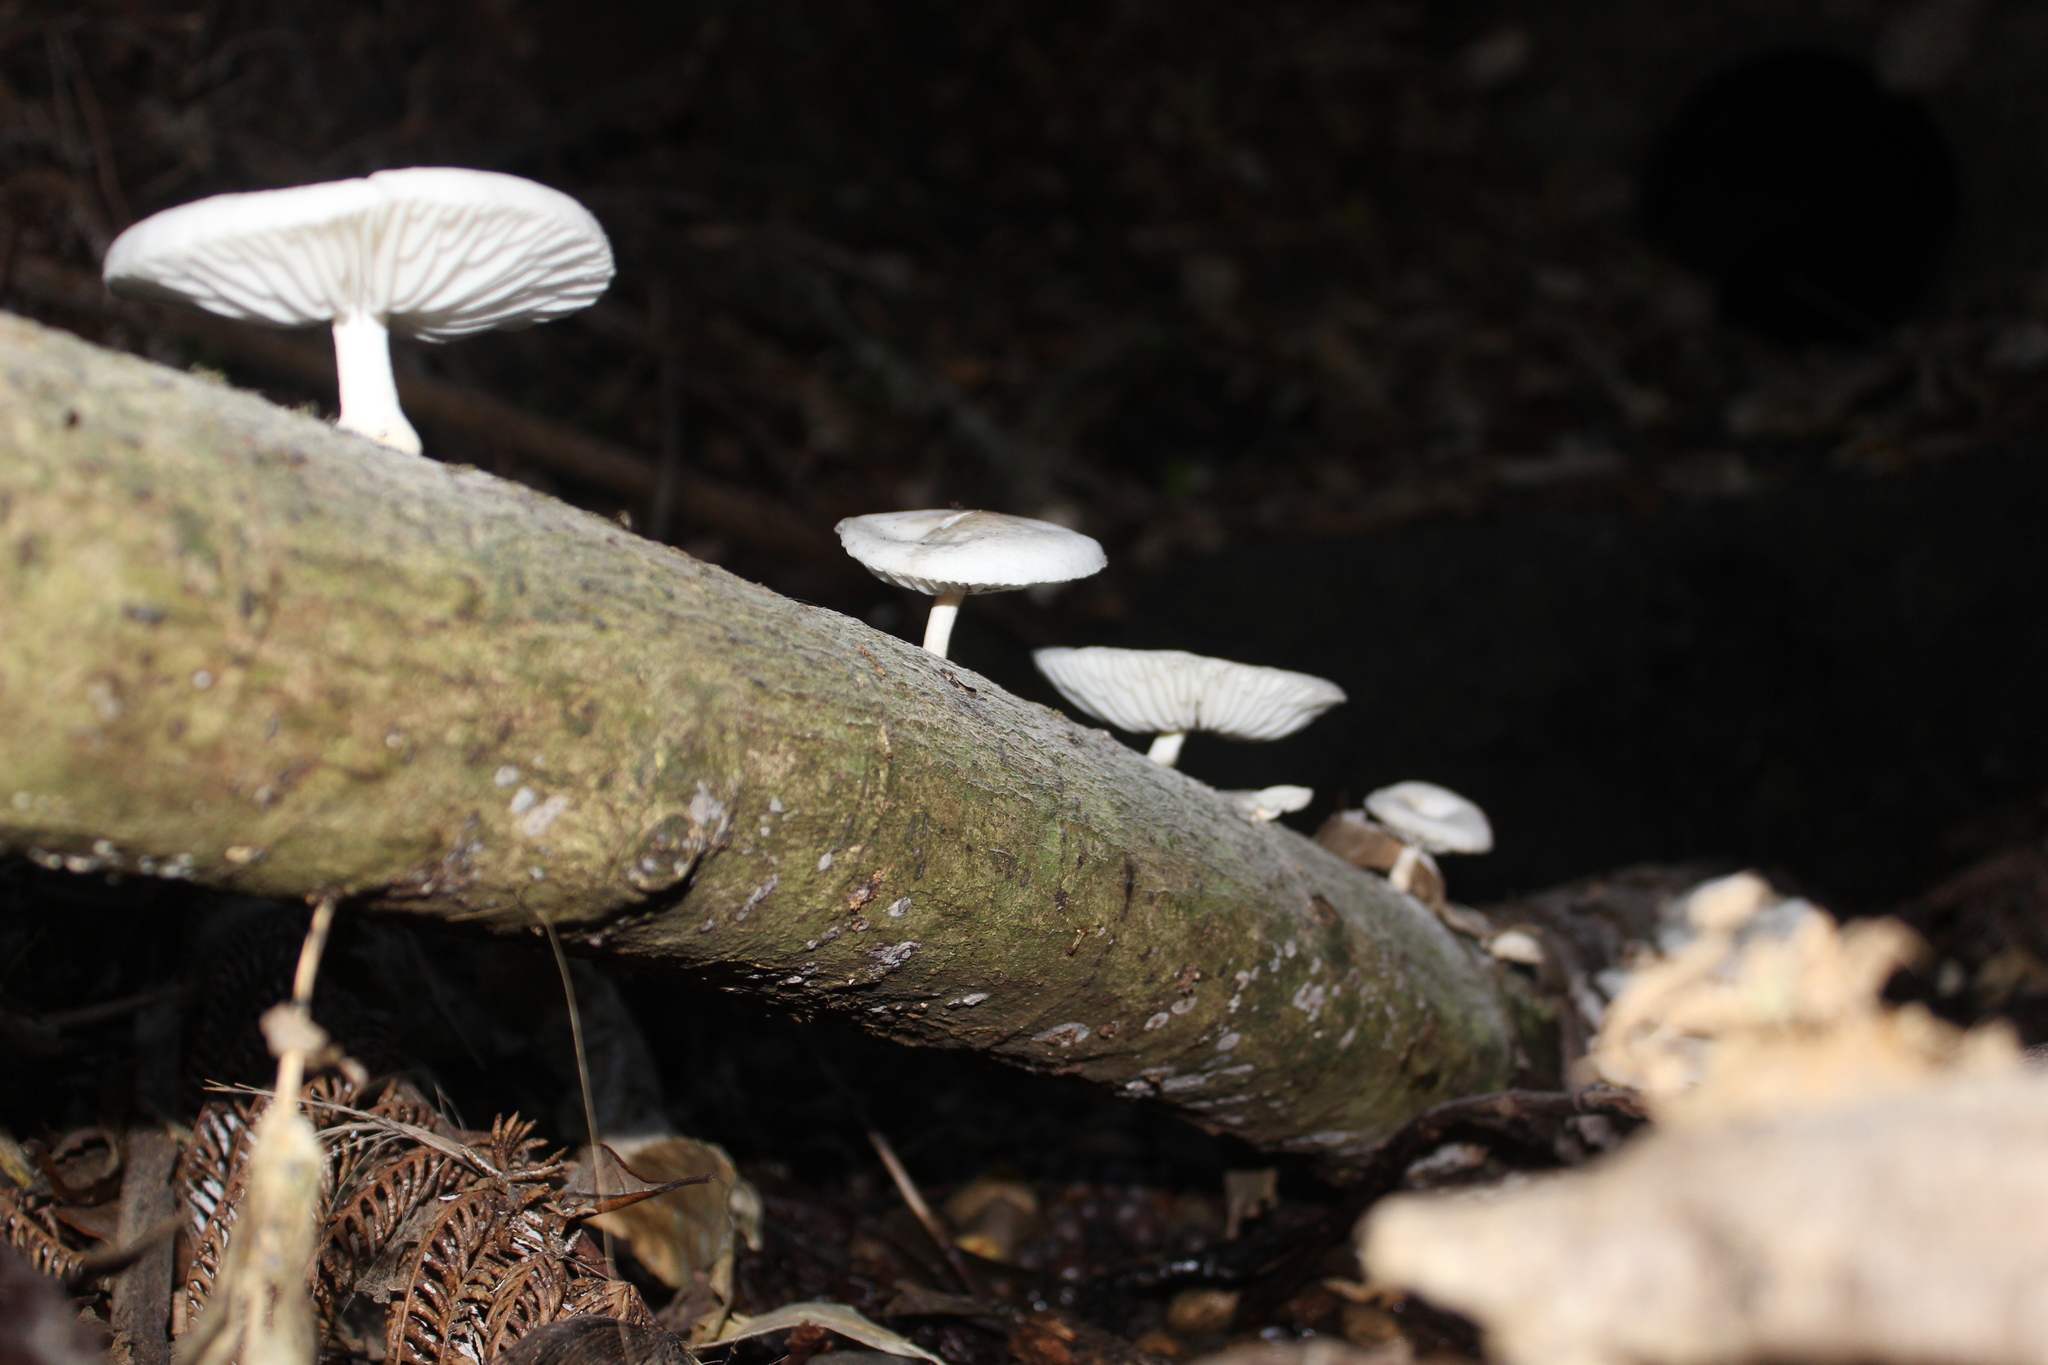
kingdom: Fungi
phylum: Basidiomycota
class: Agaricomycetes
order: Agaricales
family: Physalacriaceae
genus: Oudemansiella
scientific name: Oudemansiella australis
